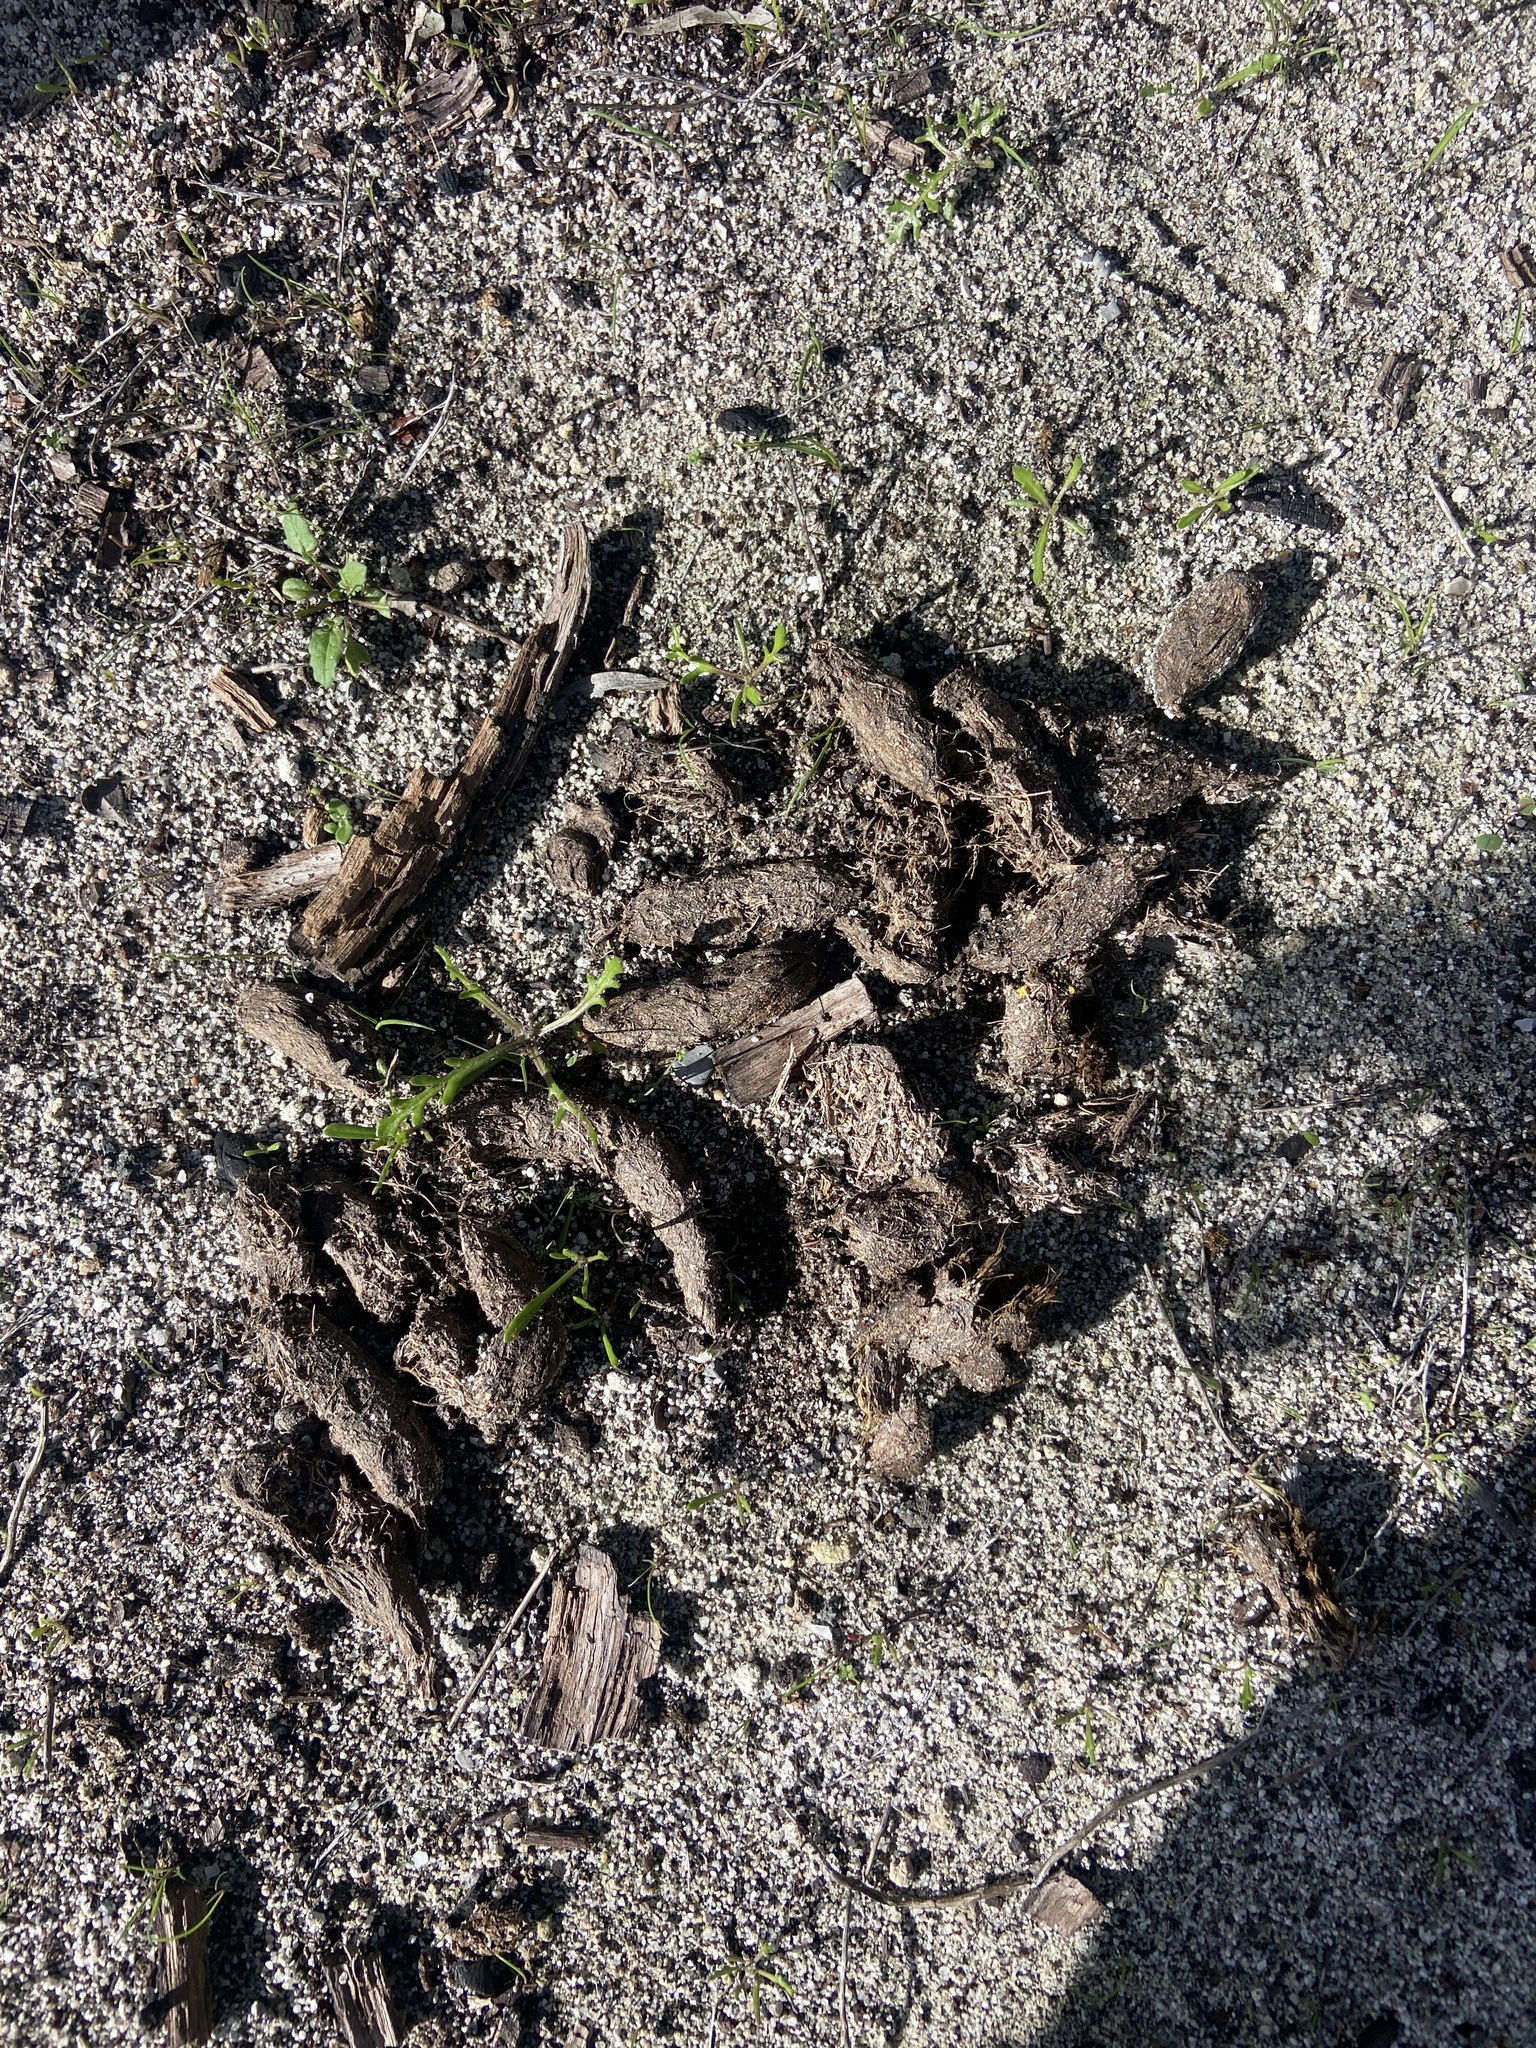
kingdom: Animalia
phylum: Chordata
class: Mammalia
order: Rodentia
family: Hystricidae
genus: Hystrix
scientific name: Hystrix africaeaustralis
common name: Cape porcupine
